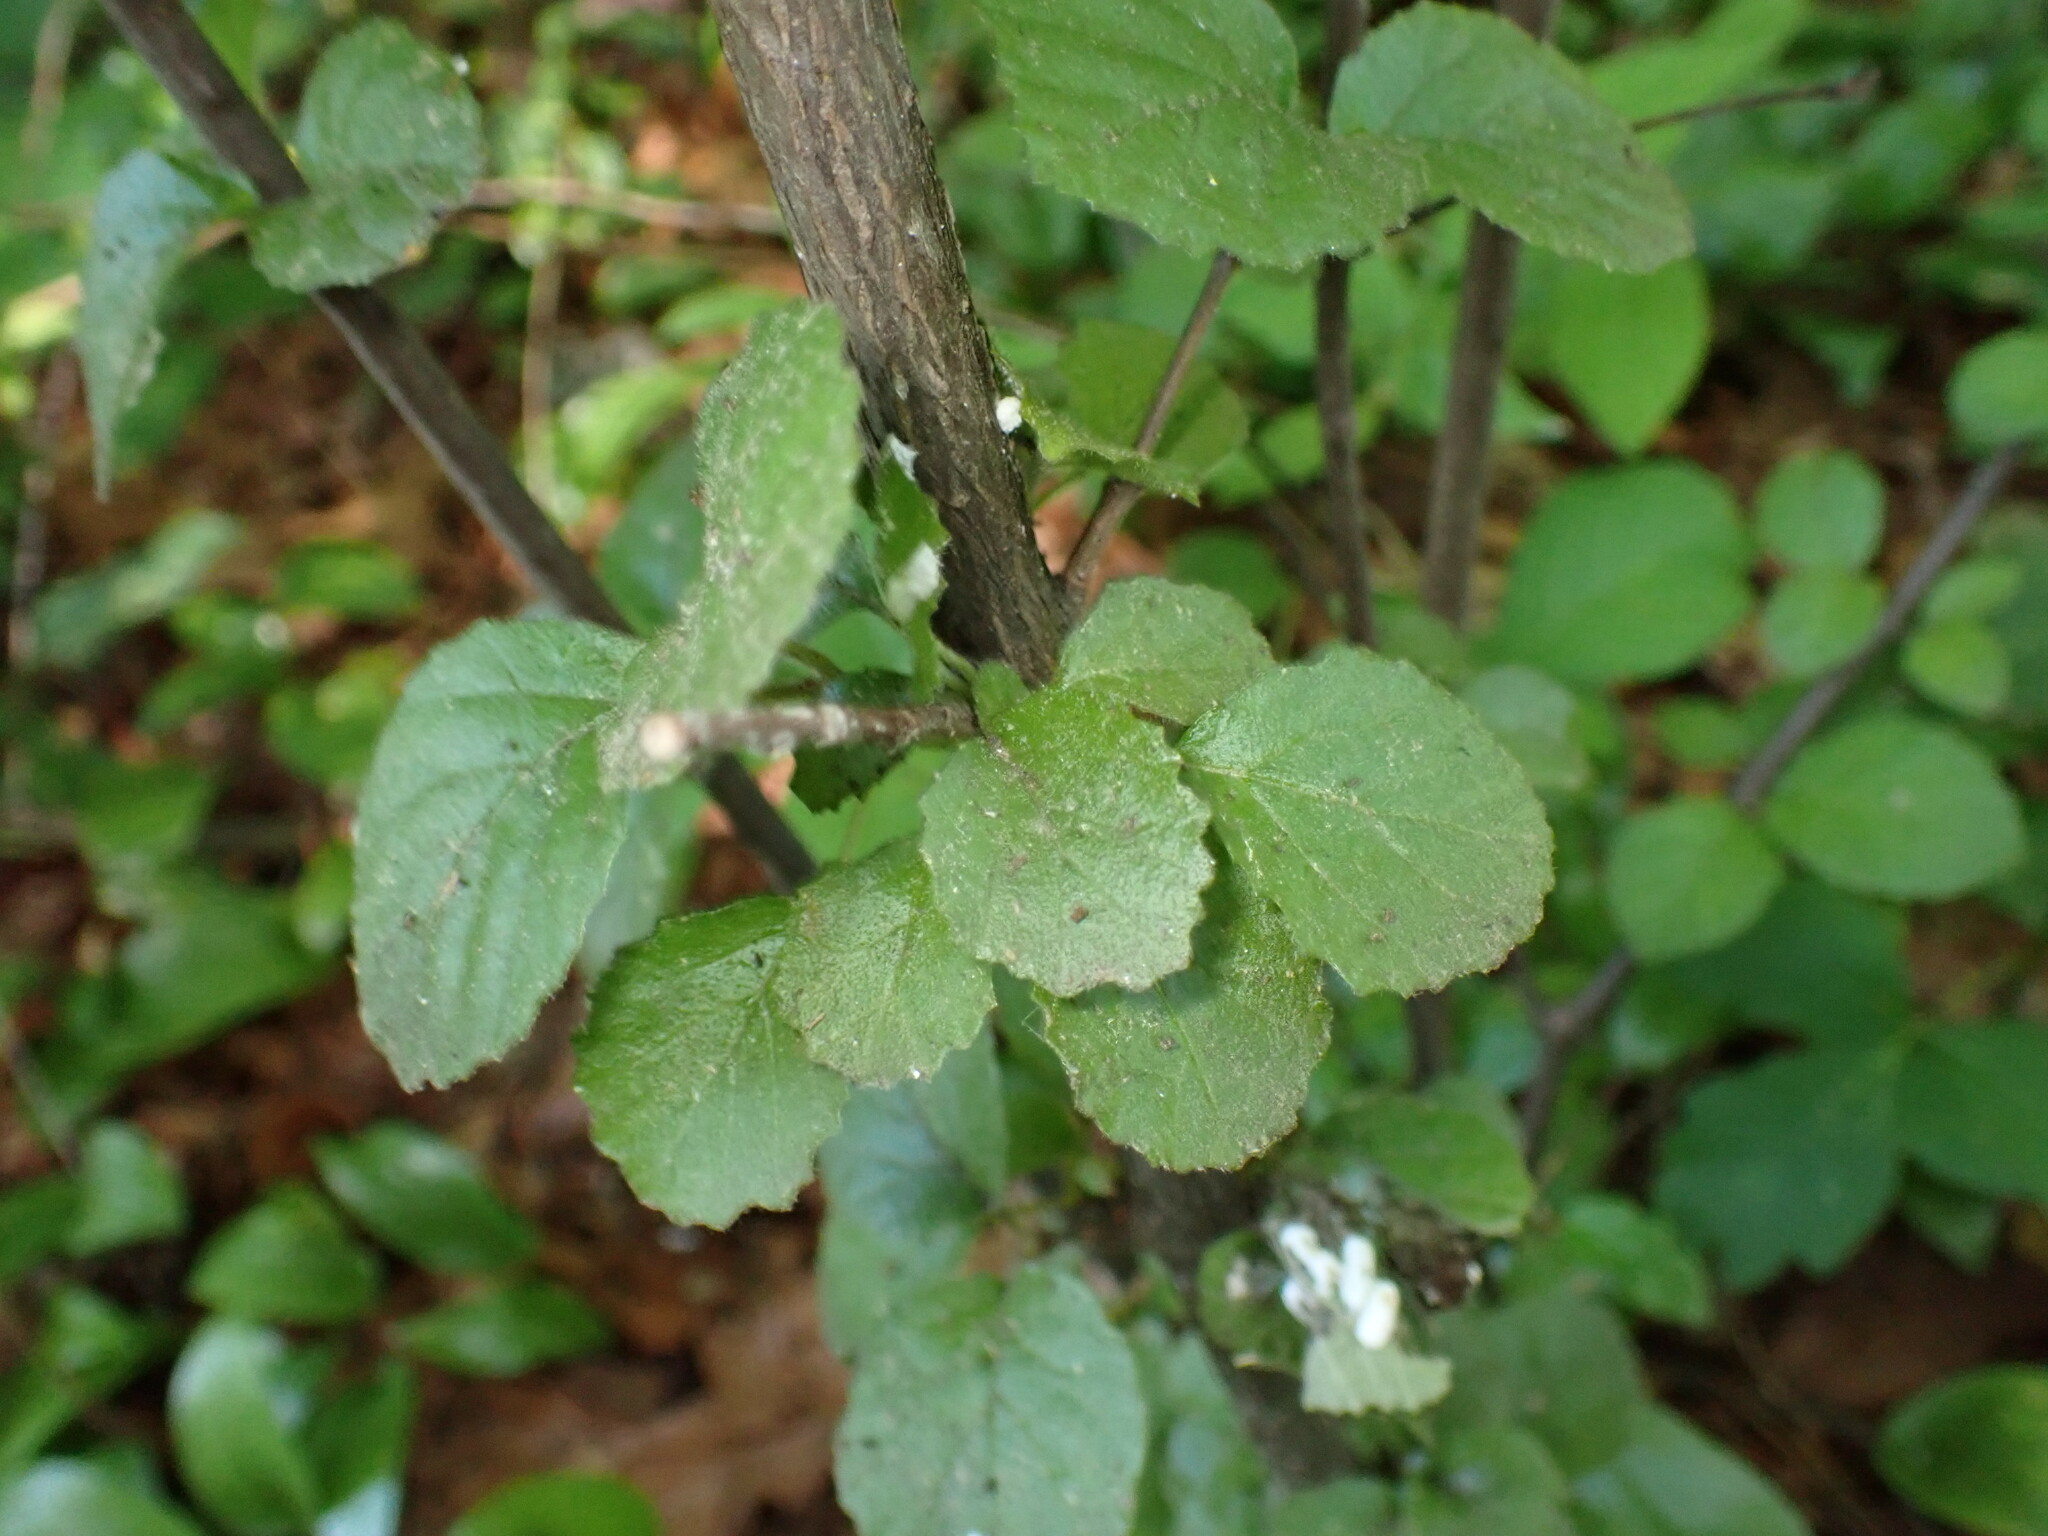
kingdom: Plantae
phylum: Tracheophyta
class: Magnoliopsida
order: Dipsacales
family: Viburnaceae
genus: Viburnum
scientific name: Viburnum dilatatum
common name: Linden arrowwood
